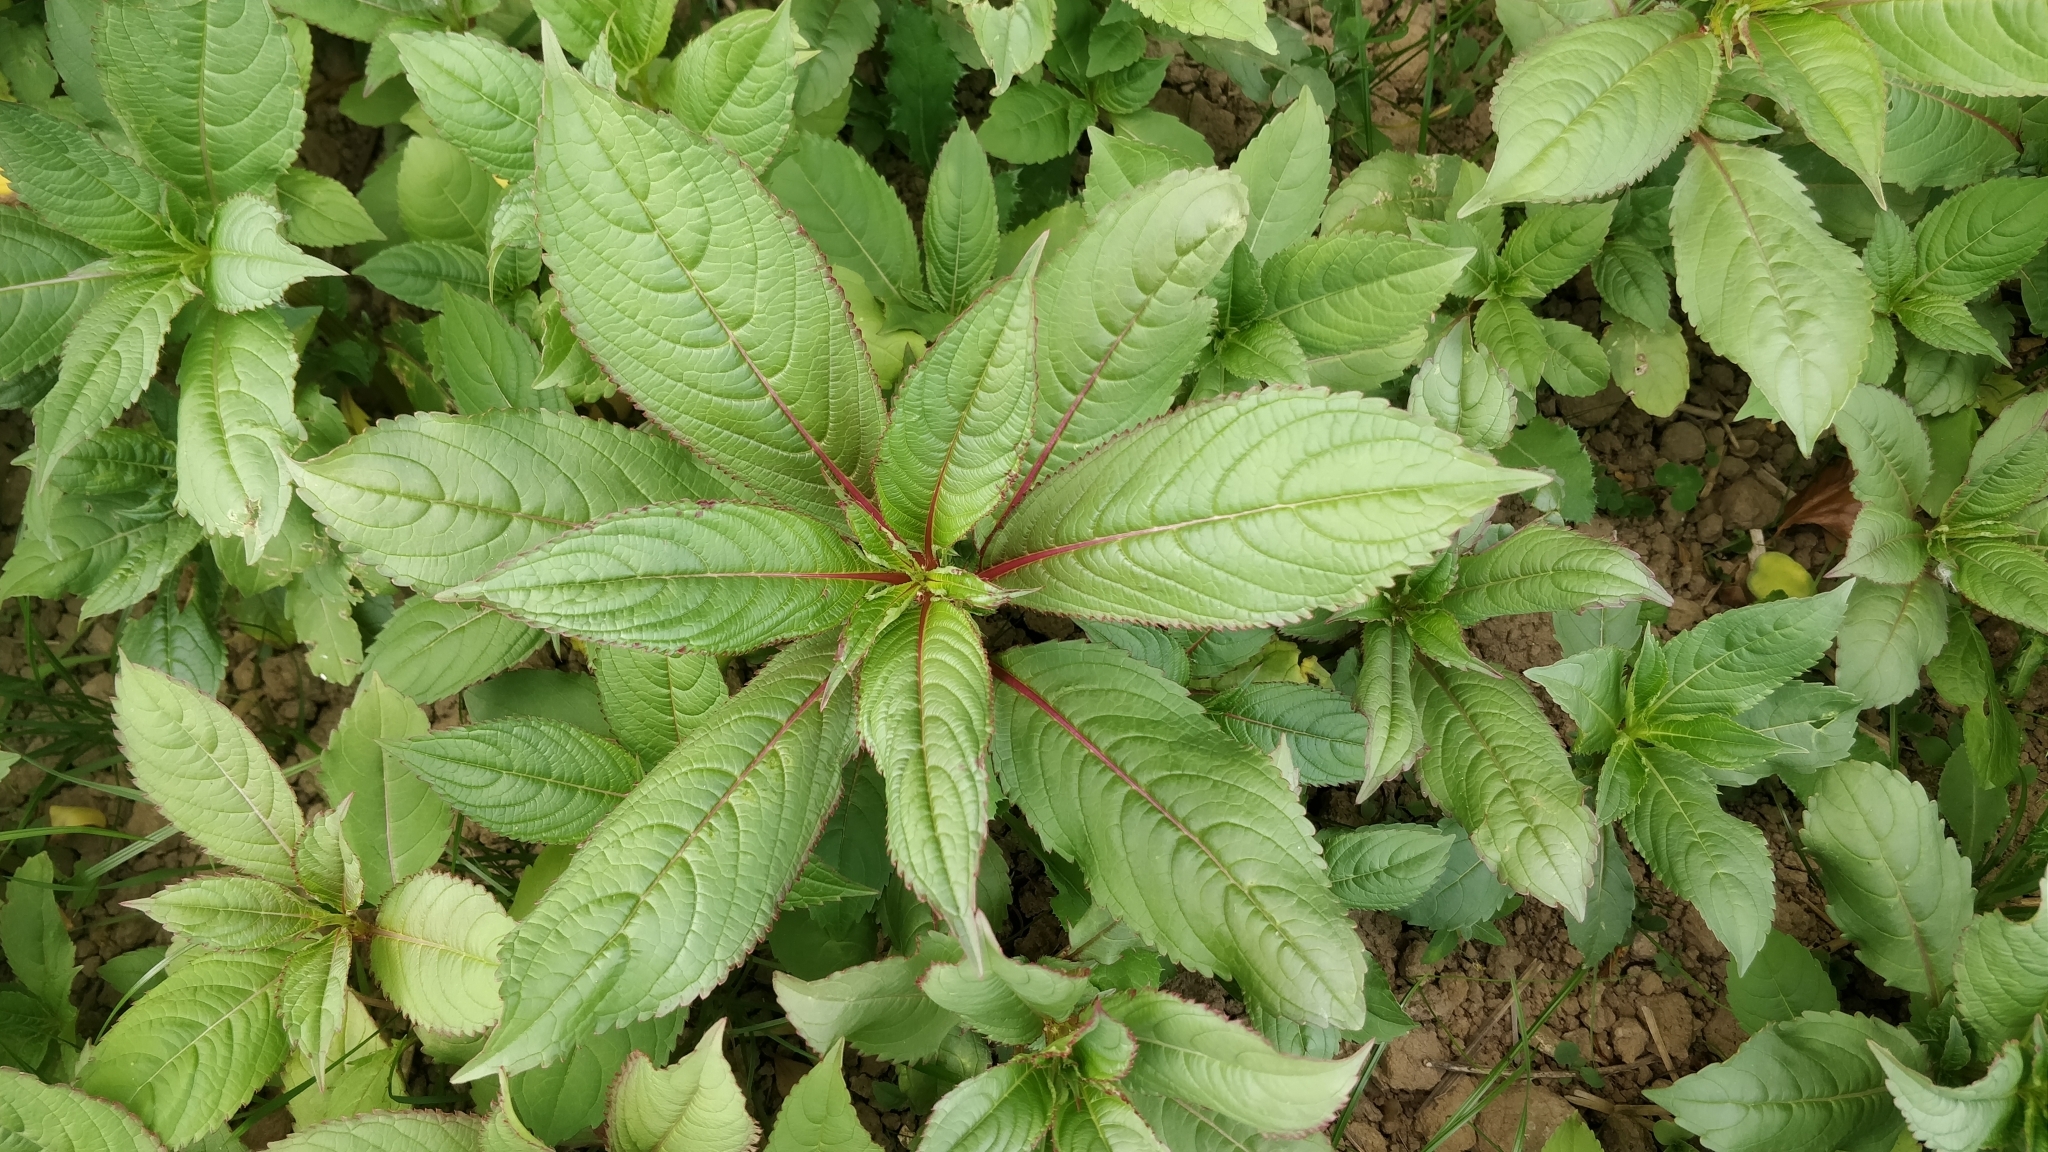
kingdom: Plantae
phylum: Tracheophyta
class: Magnoliopsida
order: Ericales
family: Balsaminaceae
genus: Impatiens
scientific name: Impatiens glandulifera
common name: Himalayan balsam
